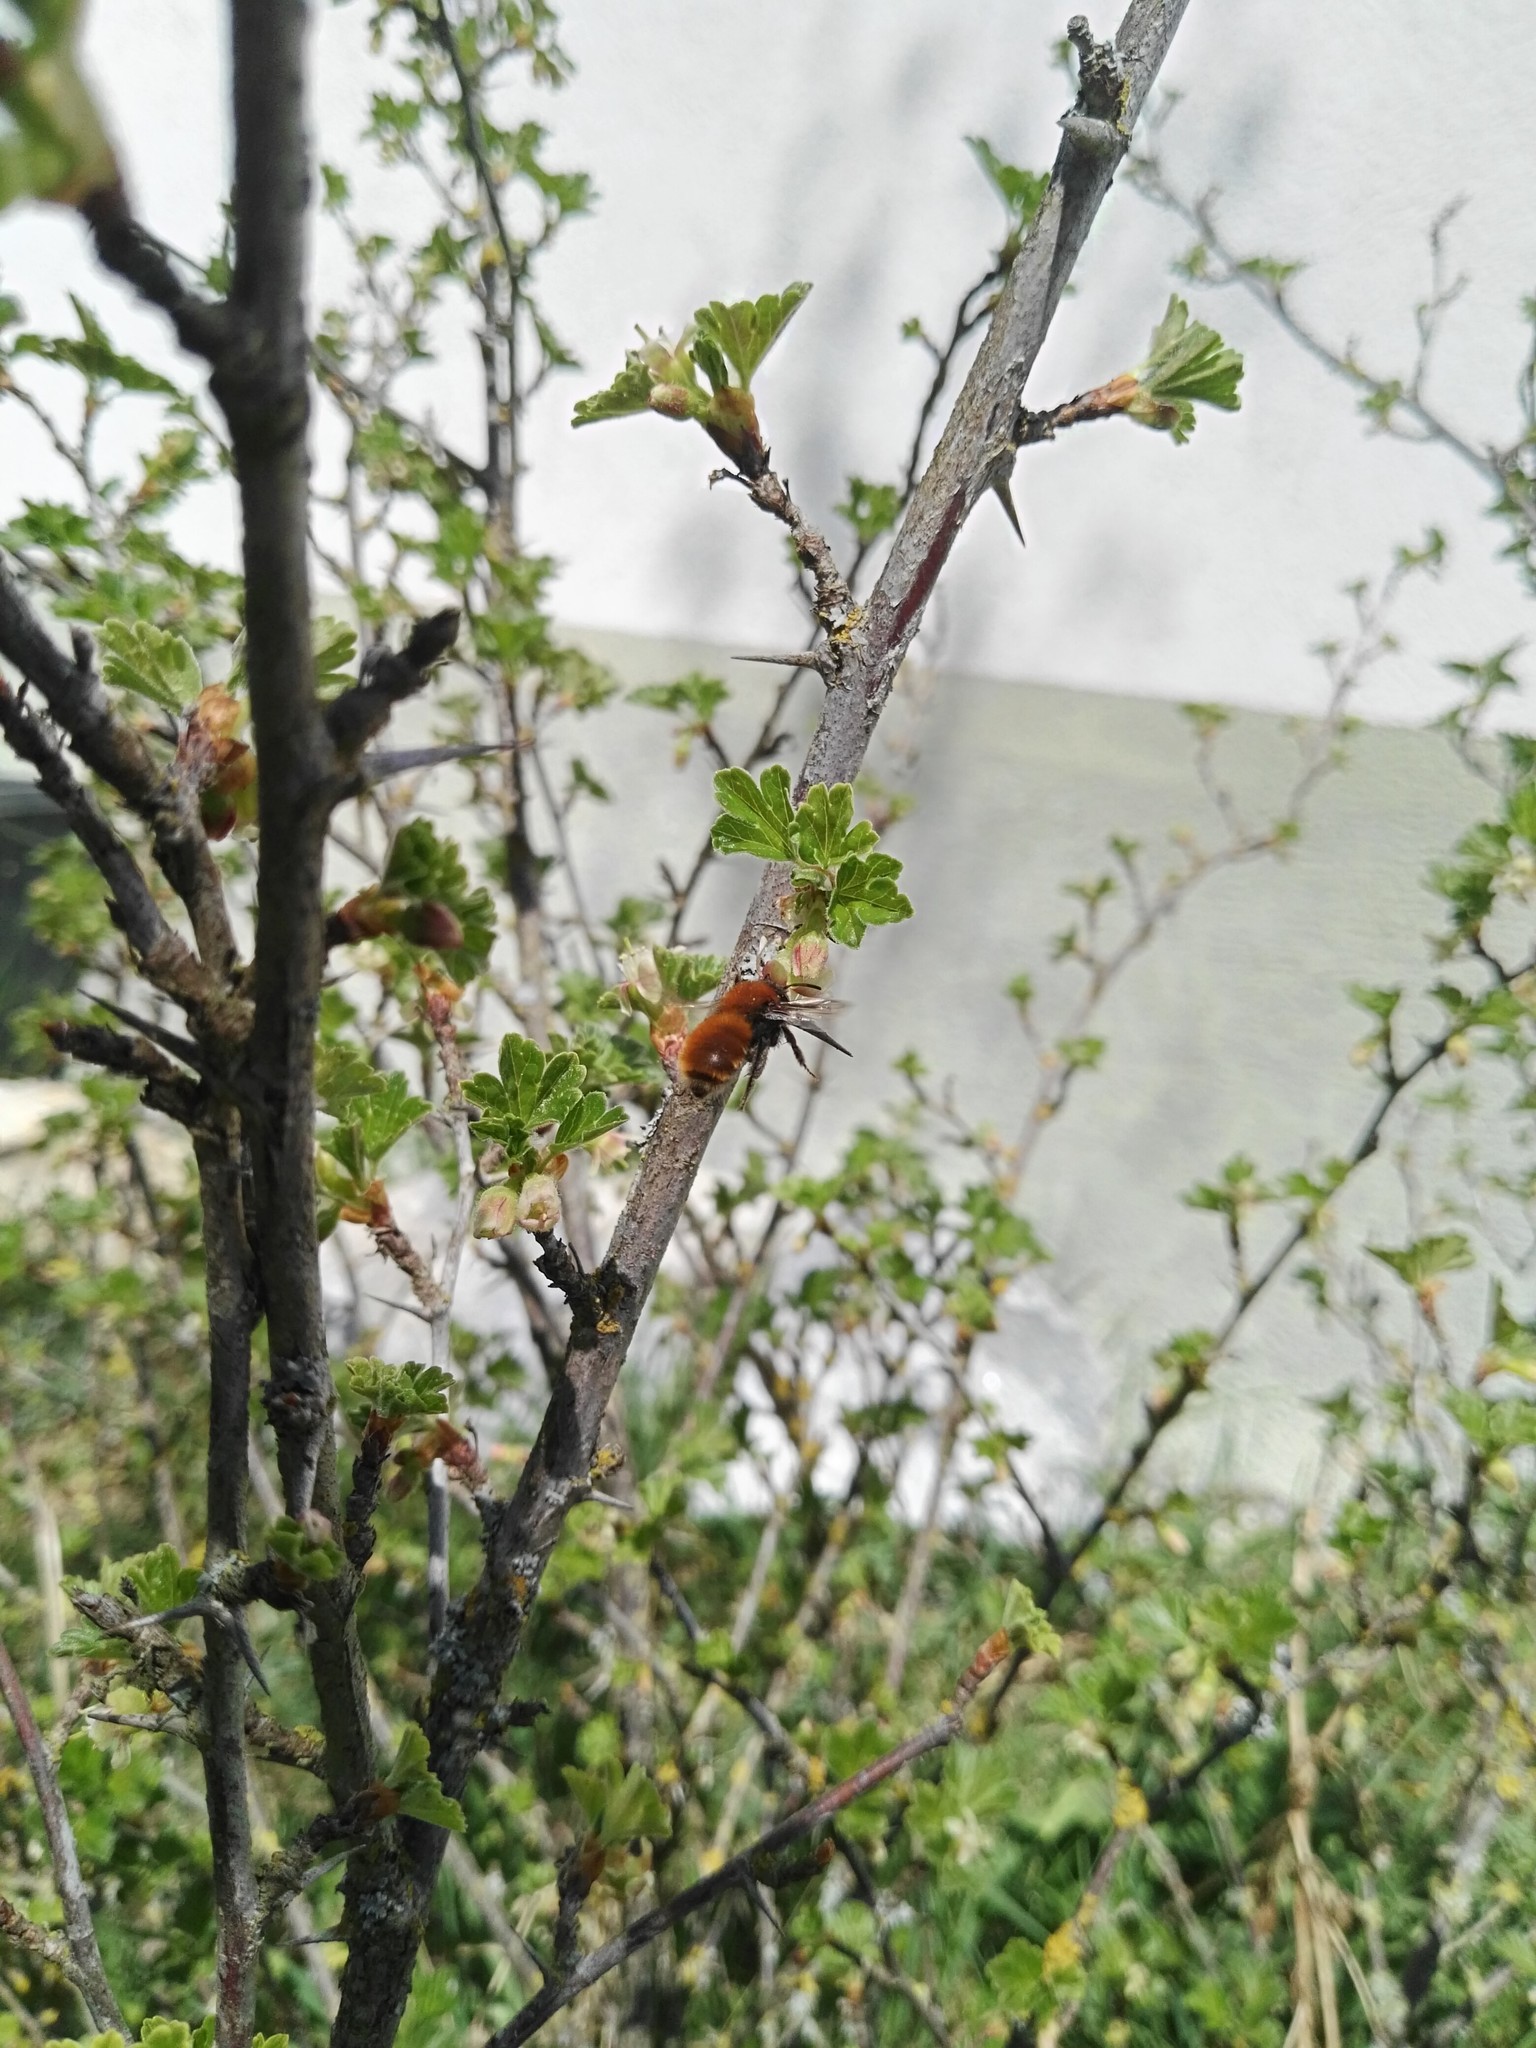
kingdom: Animalia
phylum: Arthropoda
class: Insecta
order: Hymenoptera
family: Andrenidae
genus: Andrena
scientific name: Andrena fulva
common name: Tawny mining bee
